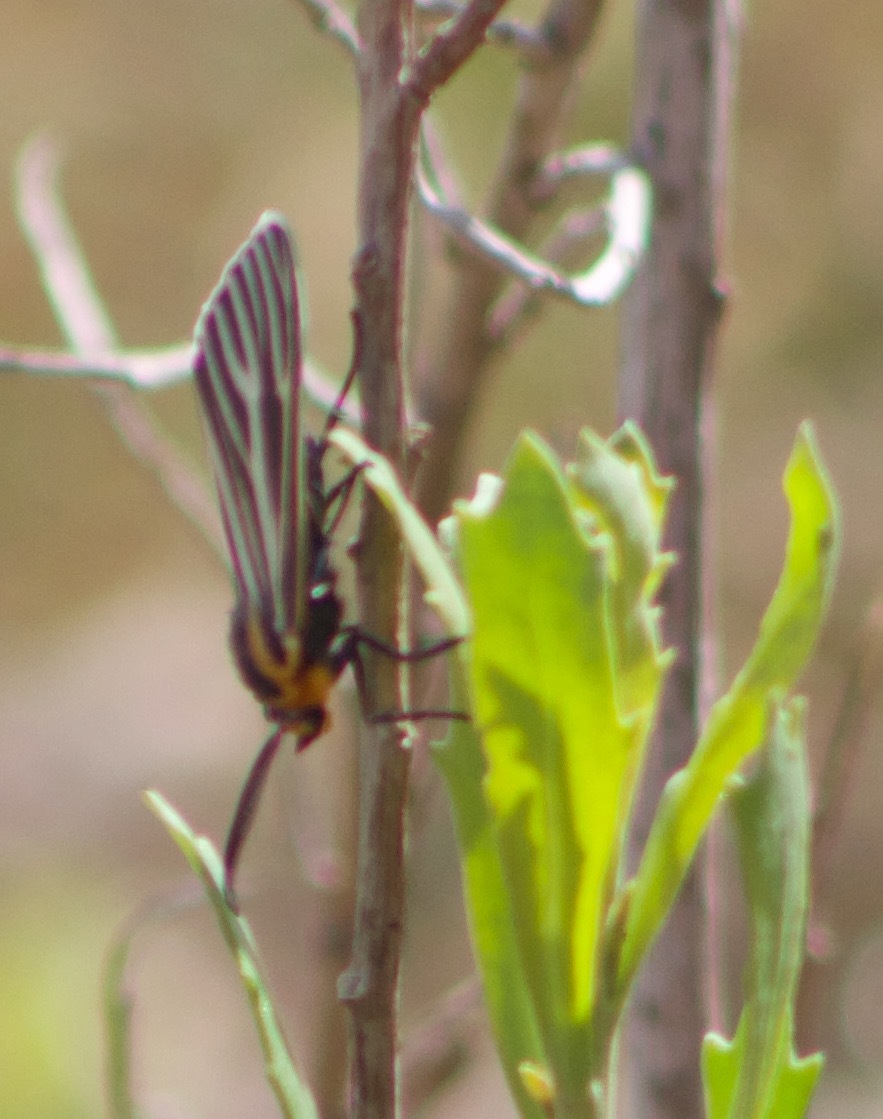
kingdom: Animalia
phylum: Arthropoda
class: Insecta
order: Lepidoptera
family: Erebidae
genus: Ctenucha
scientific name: Ctenucha vittigerum
